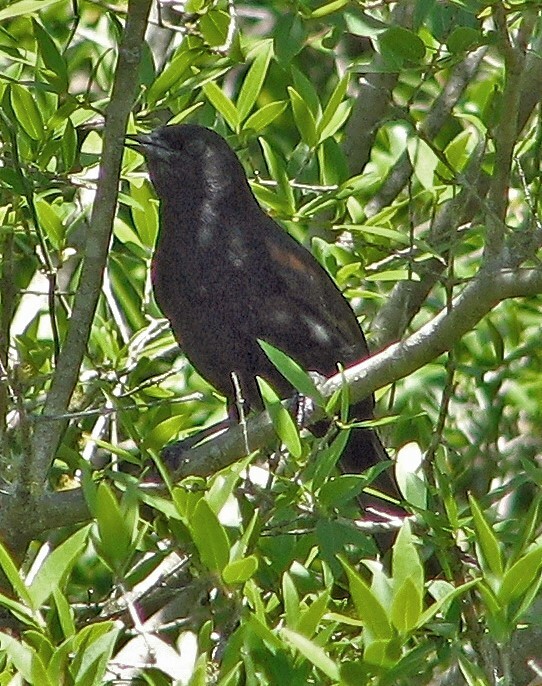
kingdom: Animalia
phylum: Chordata
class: Aves
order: Passeriformes
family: Icteridae
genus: Icterus
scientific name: Icterus cayanensis
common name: Epaulet oriole
